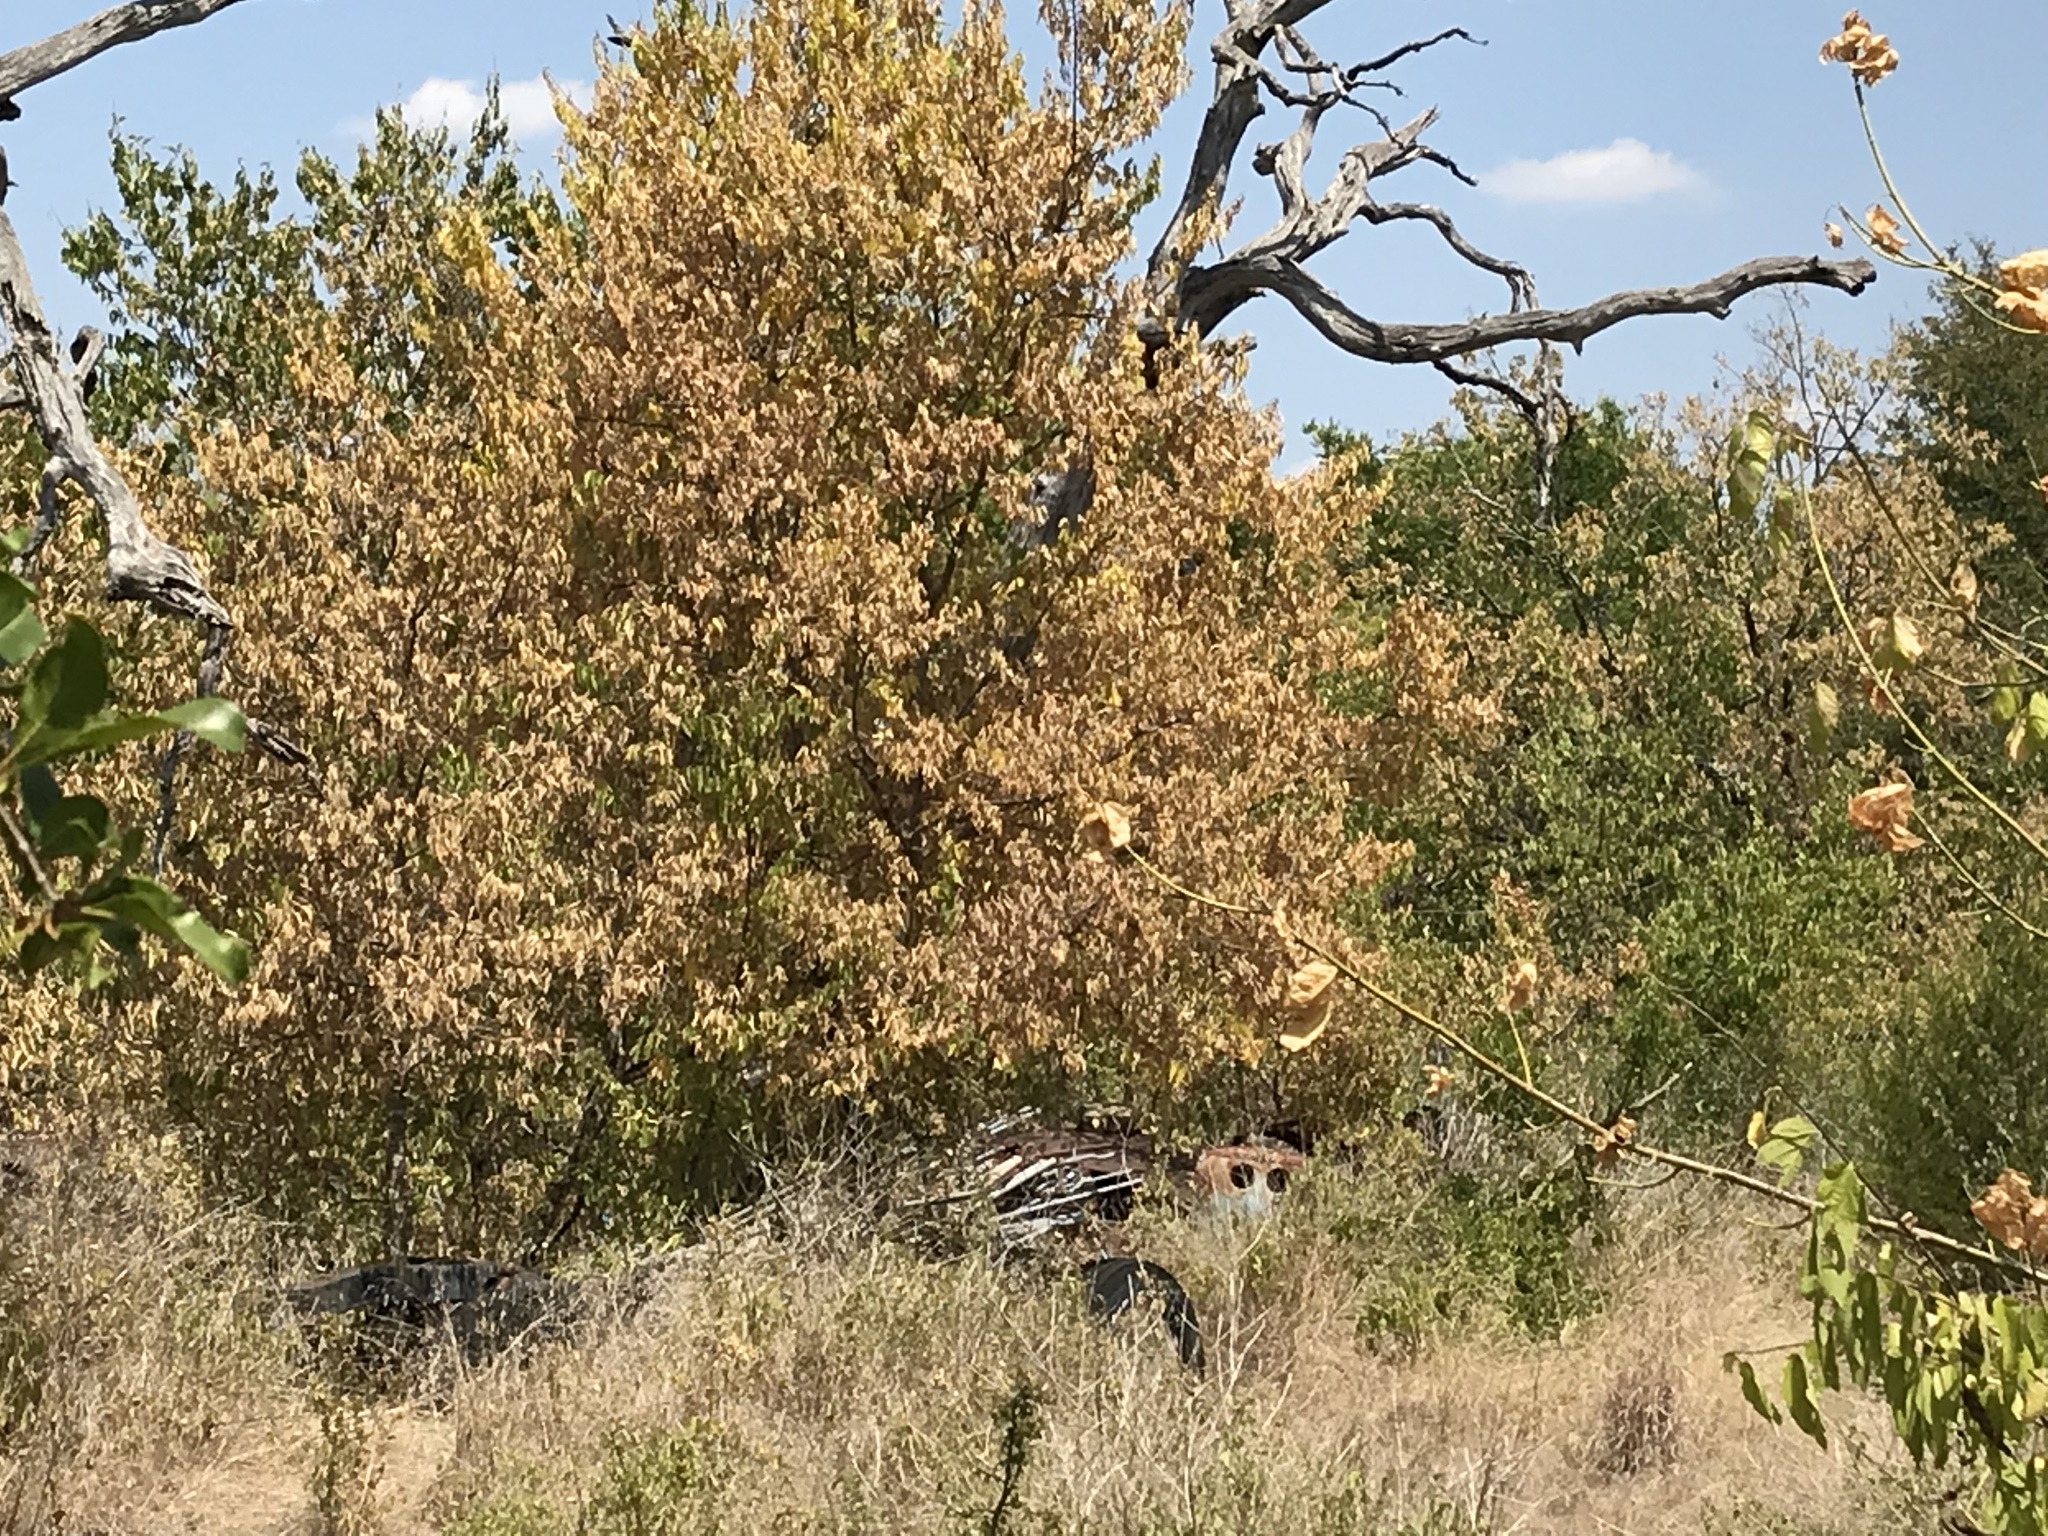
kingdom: Plantae
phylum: Tracheophyta
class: Magnoliopsida
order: Rosales
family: Cannabaceae
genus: Celtis
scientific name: Celtis laevigata
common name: Sugarberry
